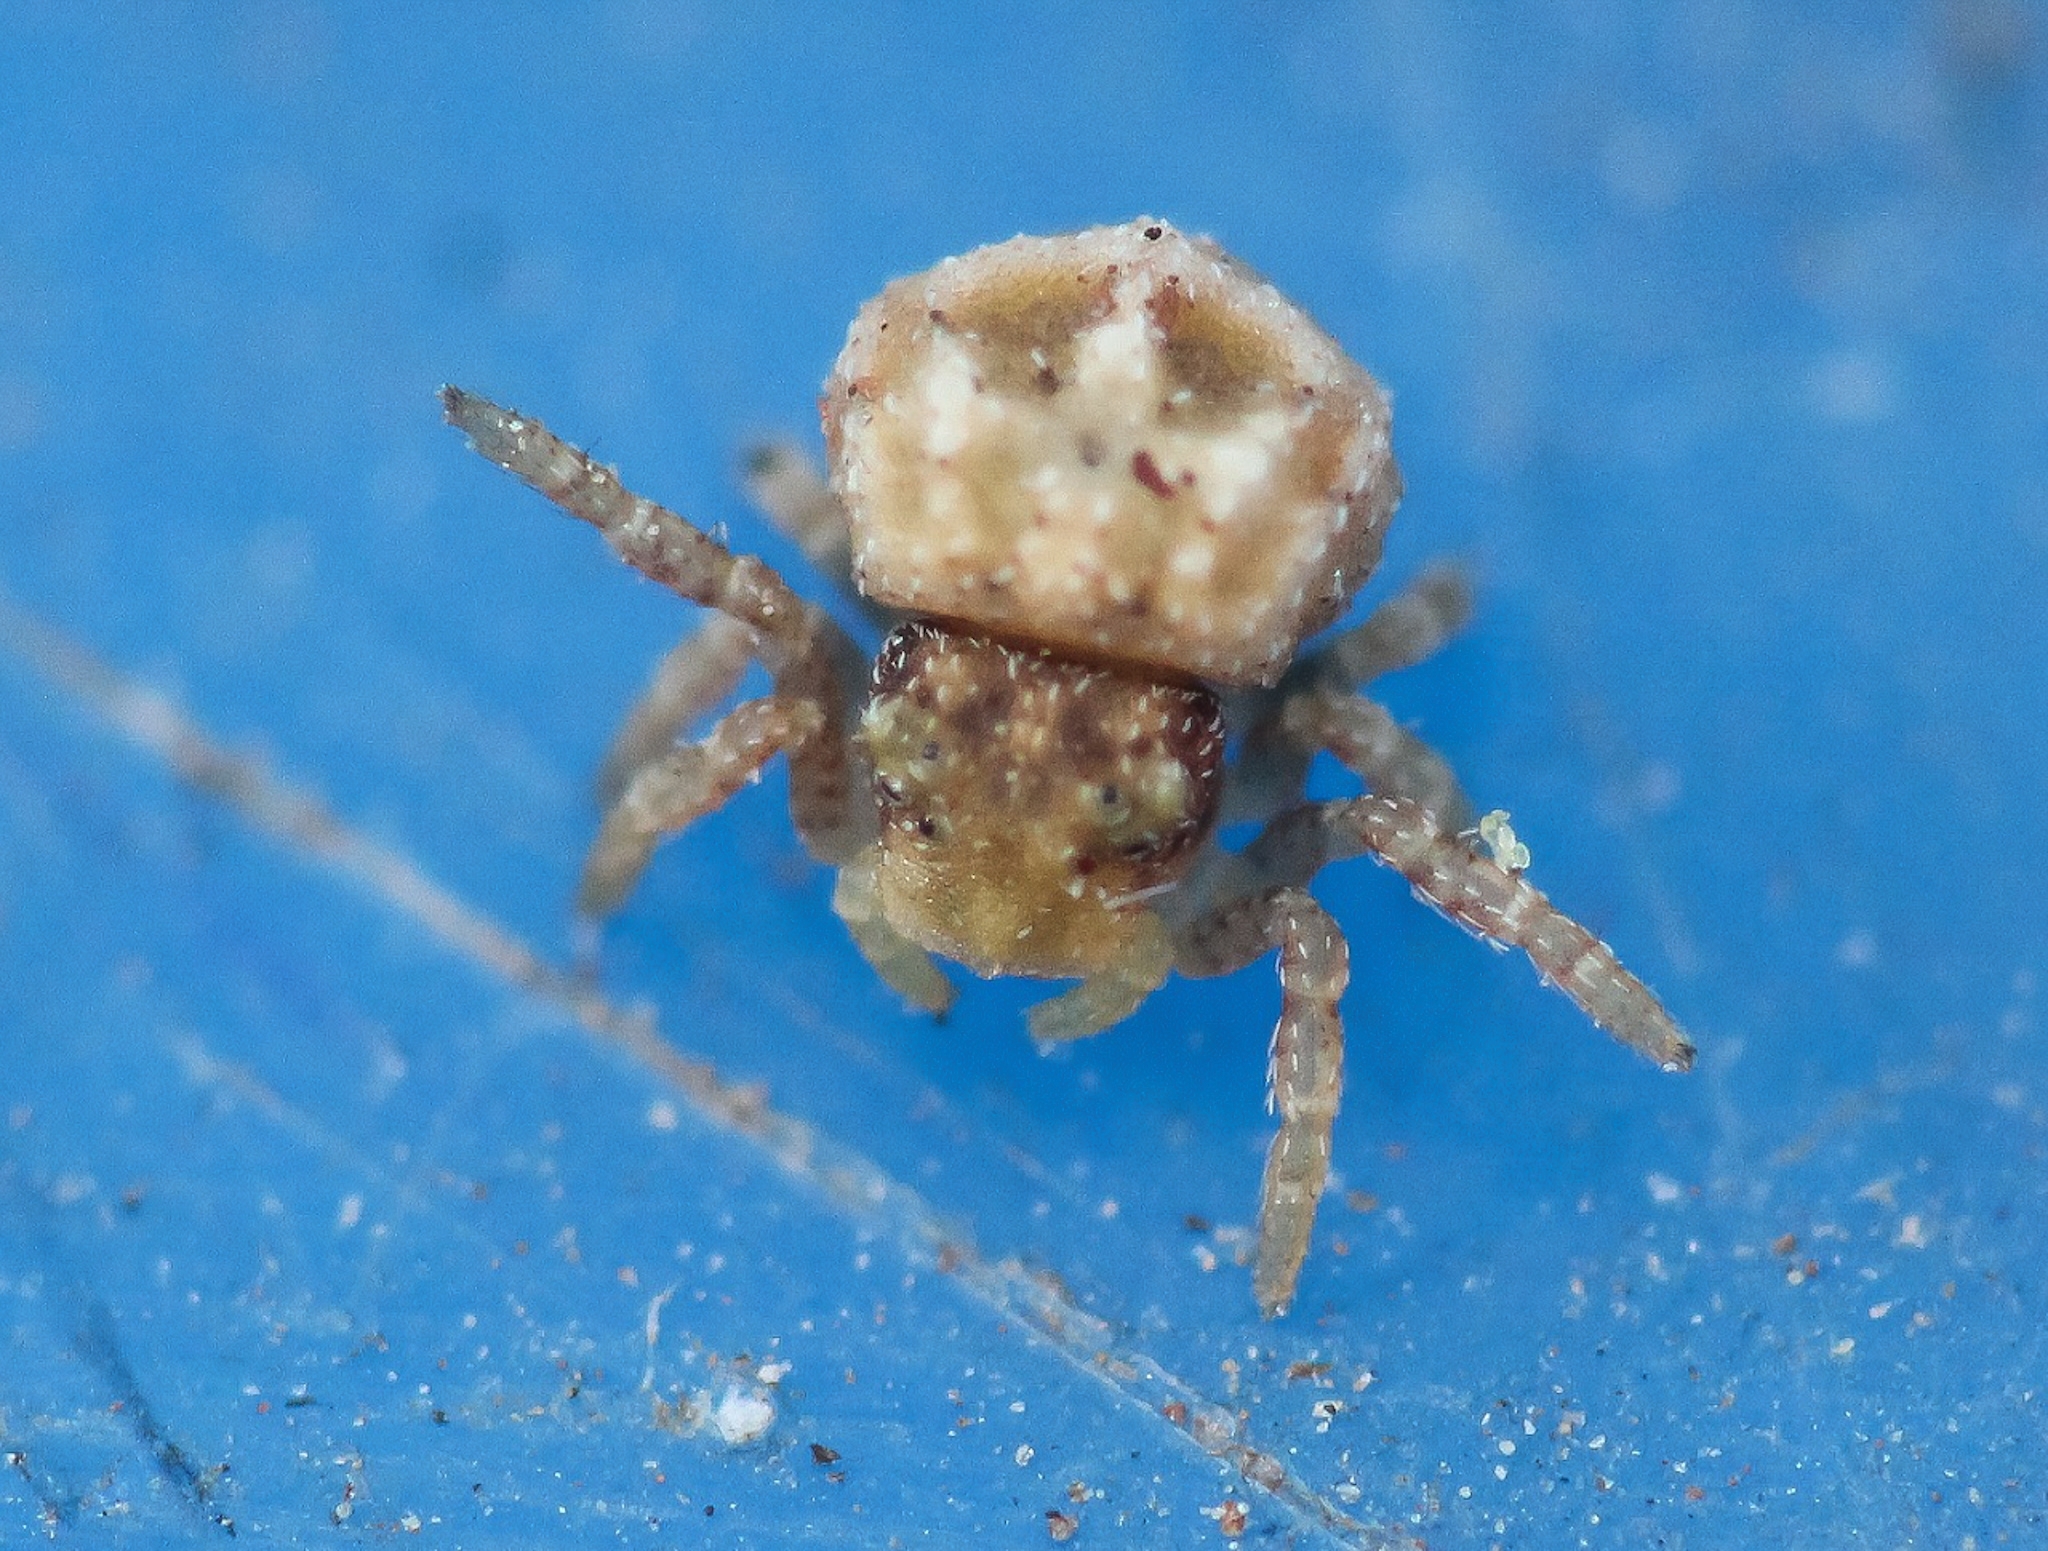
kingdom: Animalia
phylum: Arthropoda
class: Arachnida
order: Araneae
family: Thomisidae
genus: Parabomis
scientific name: Parabomis megae
